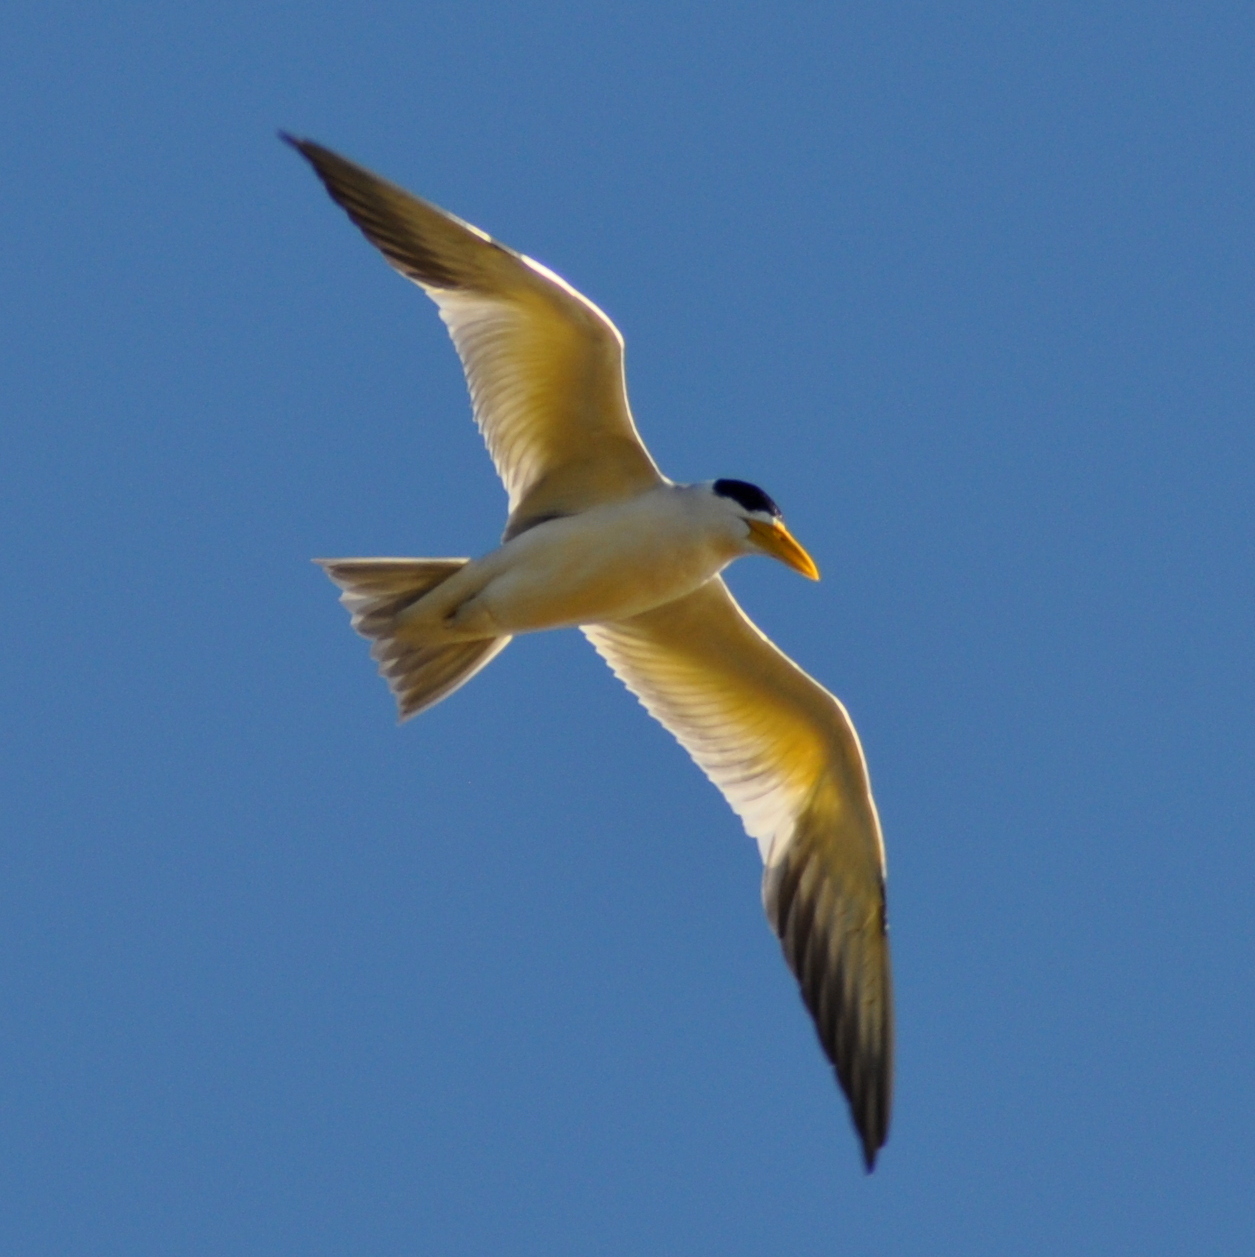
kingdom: Animalia
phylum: Chordata
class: Aves
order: Charadriiformes
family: Laridae
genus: Phaetusa
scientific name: Phaetusa simplex
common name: Large-billed tern
